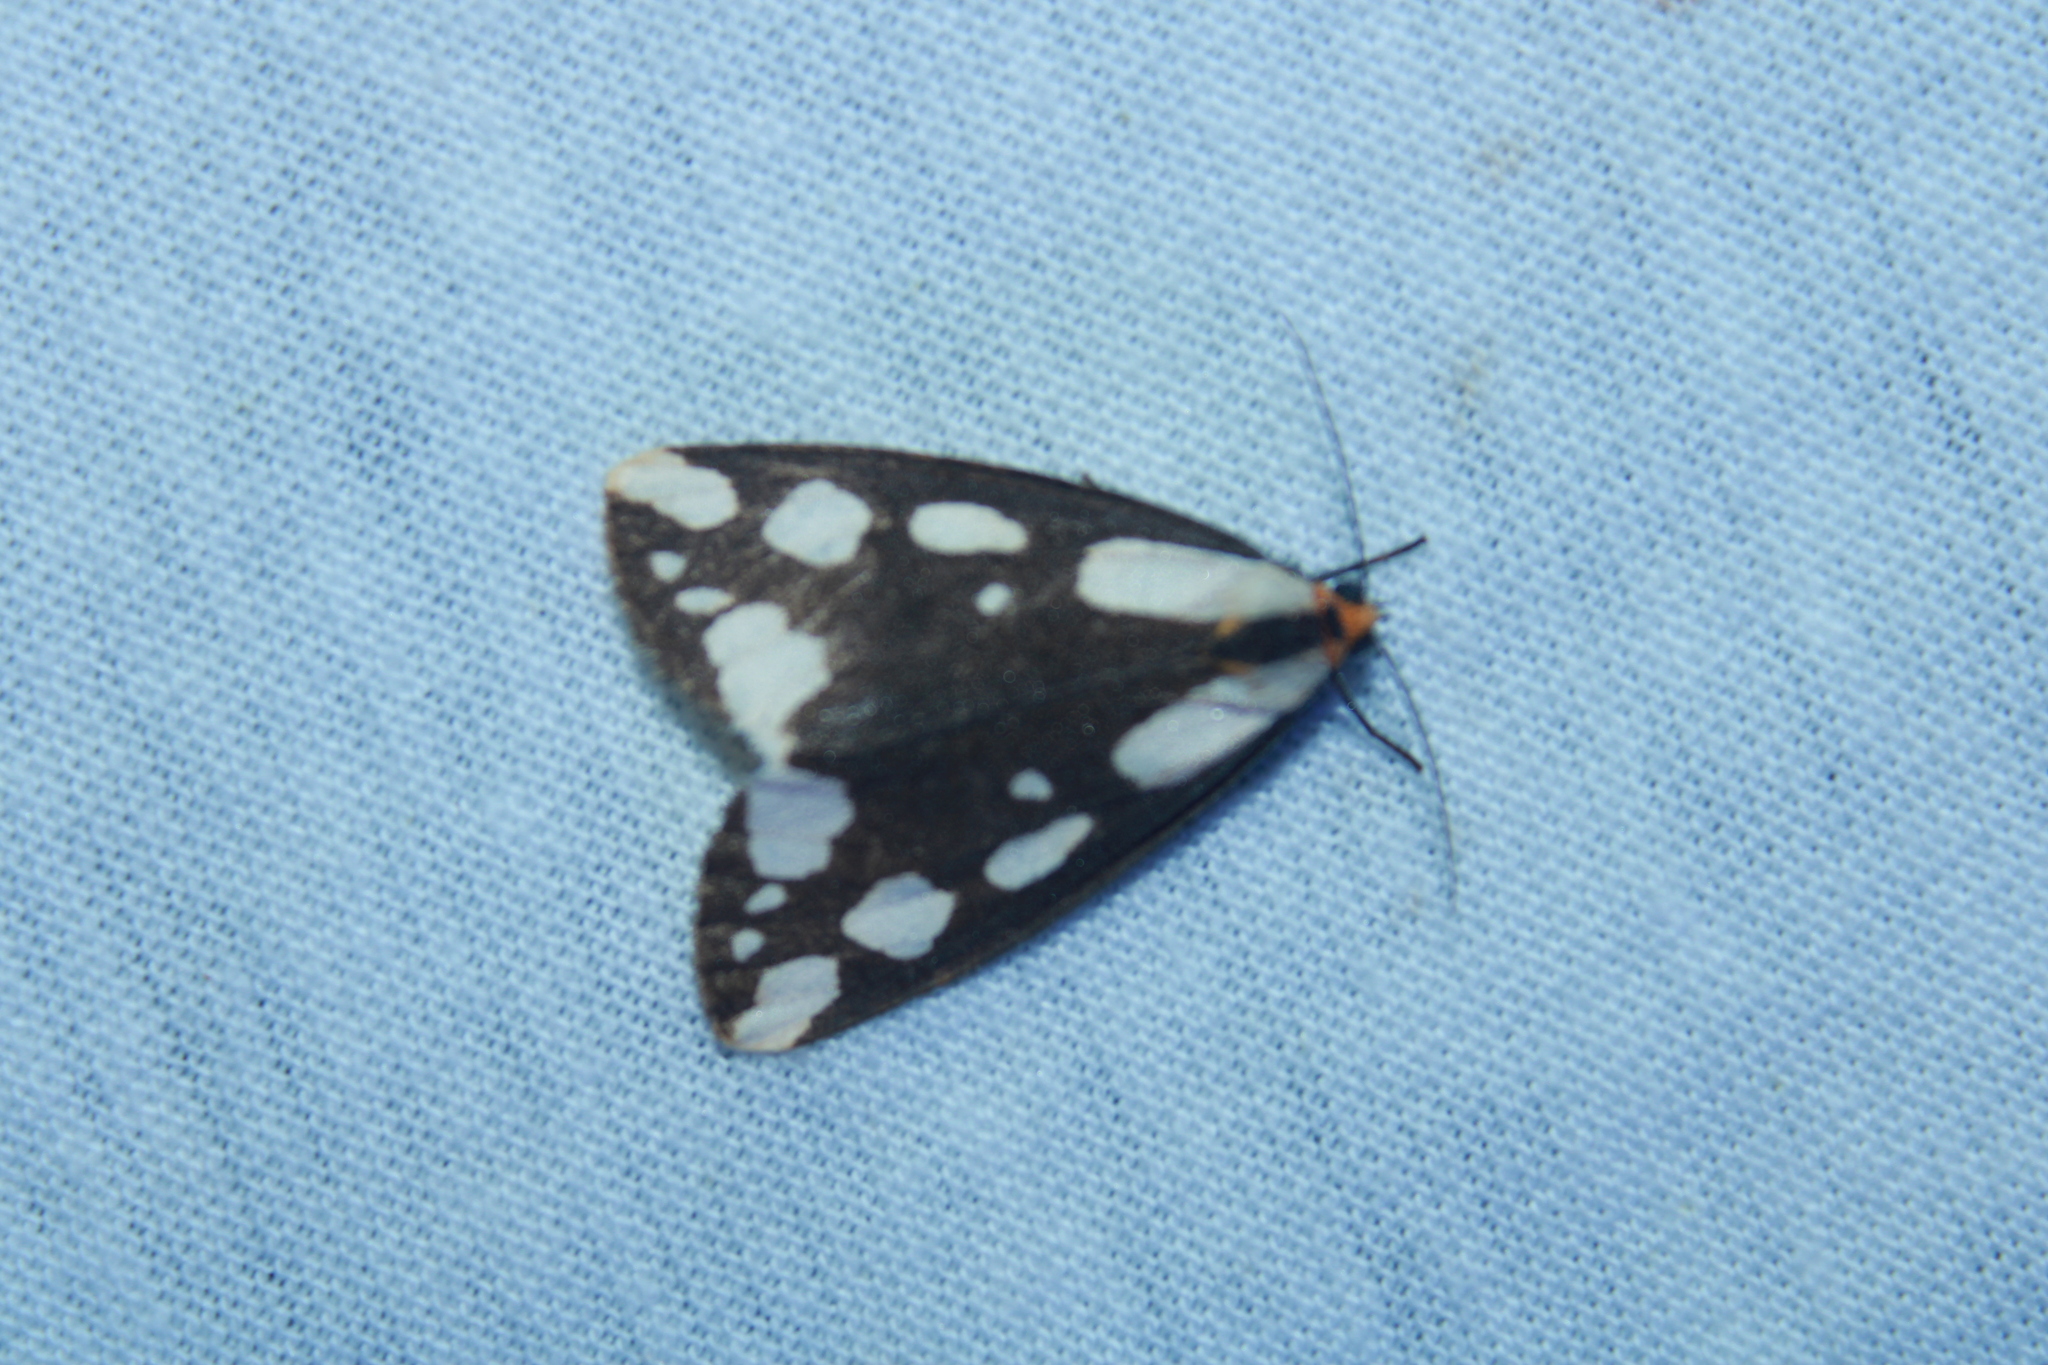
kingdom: Animalia
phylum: Arthropoda
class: Insecta
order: Lepidoptera
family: Erebidae
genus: Haploa
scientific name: Haploa confusa
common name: Confused haploa moth
